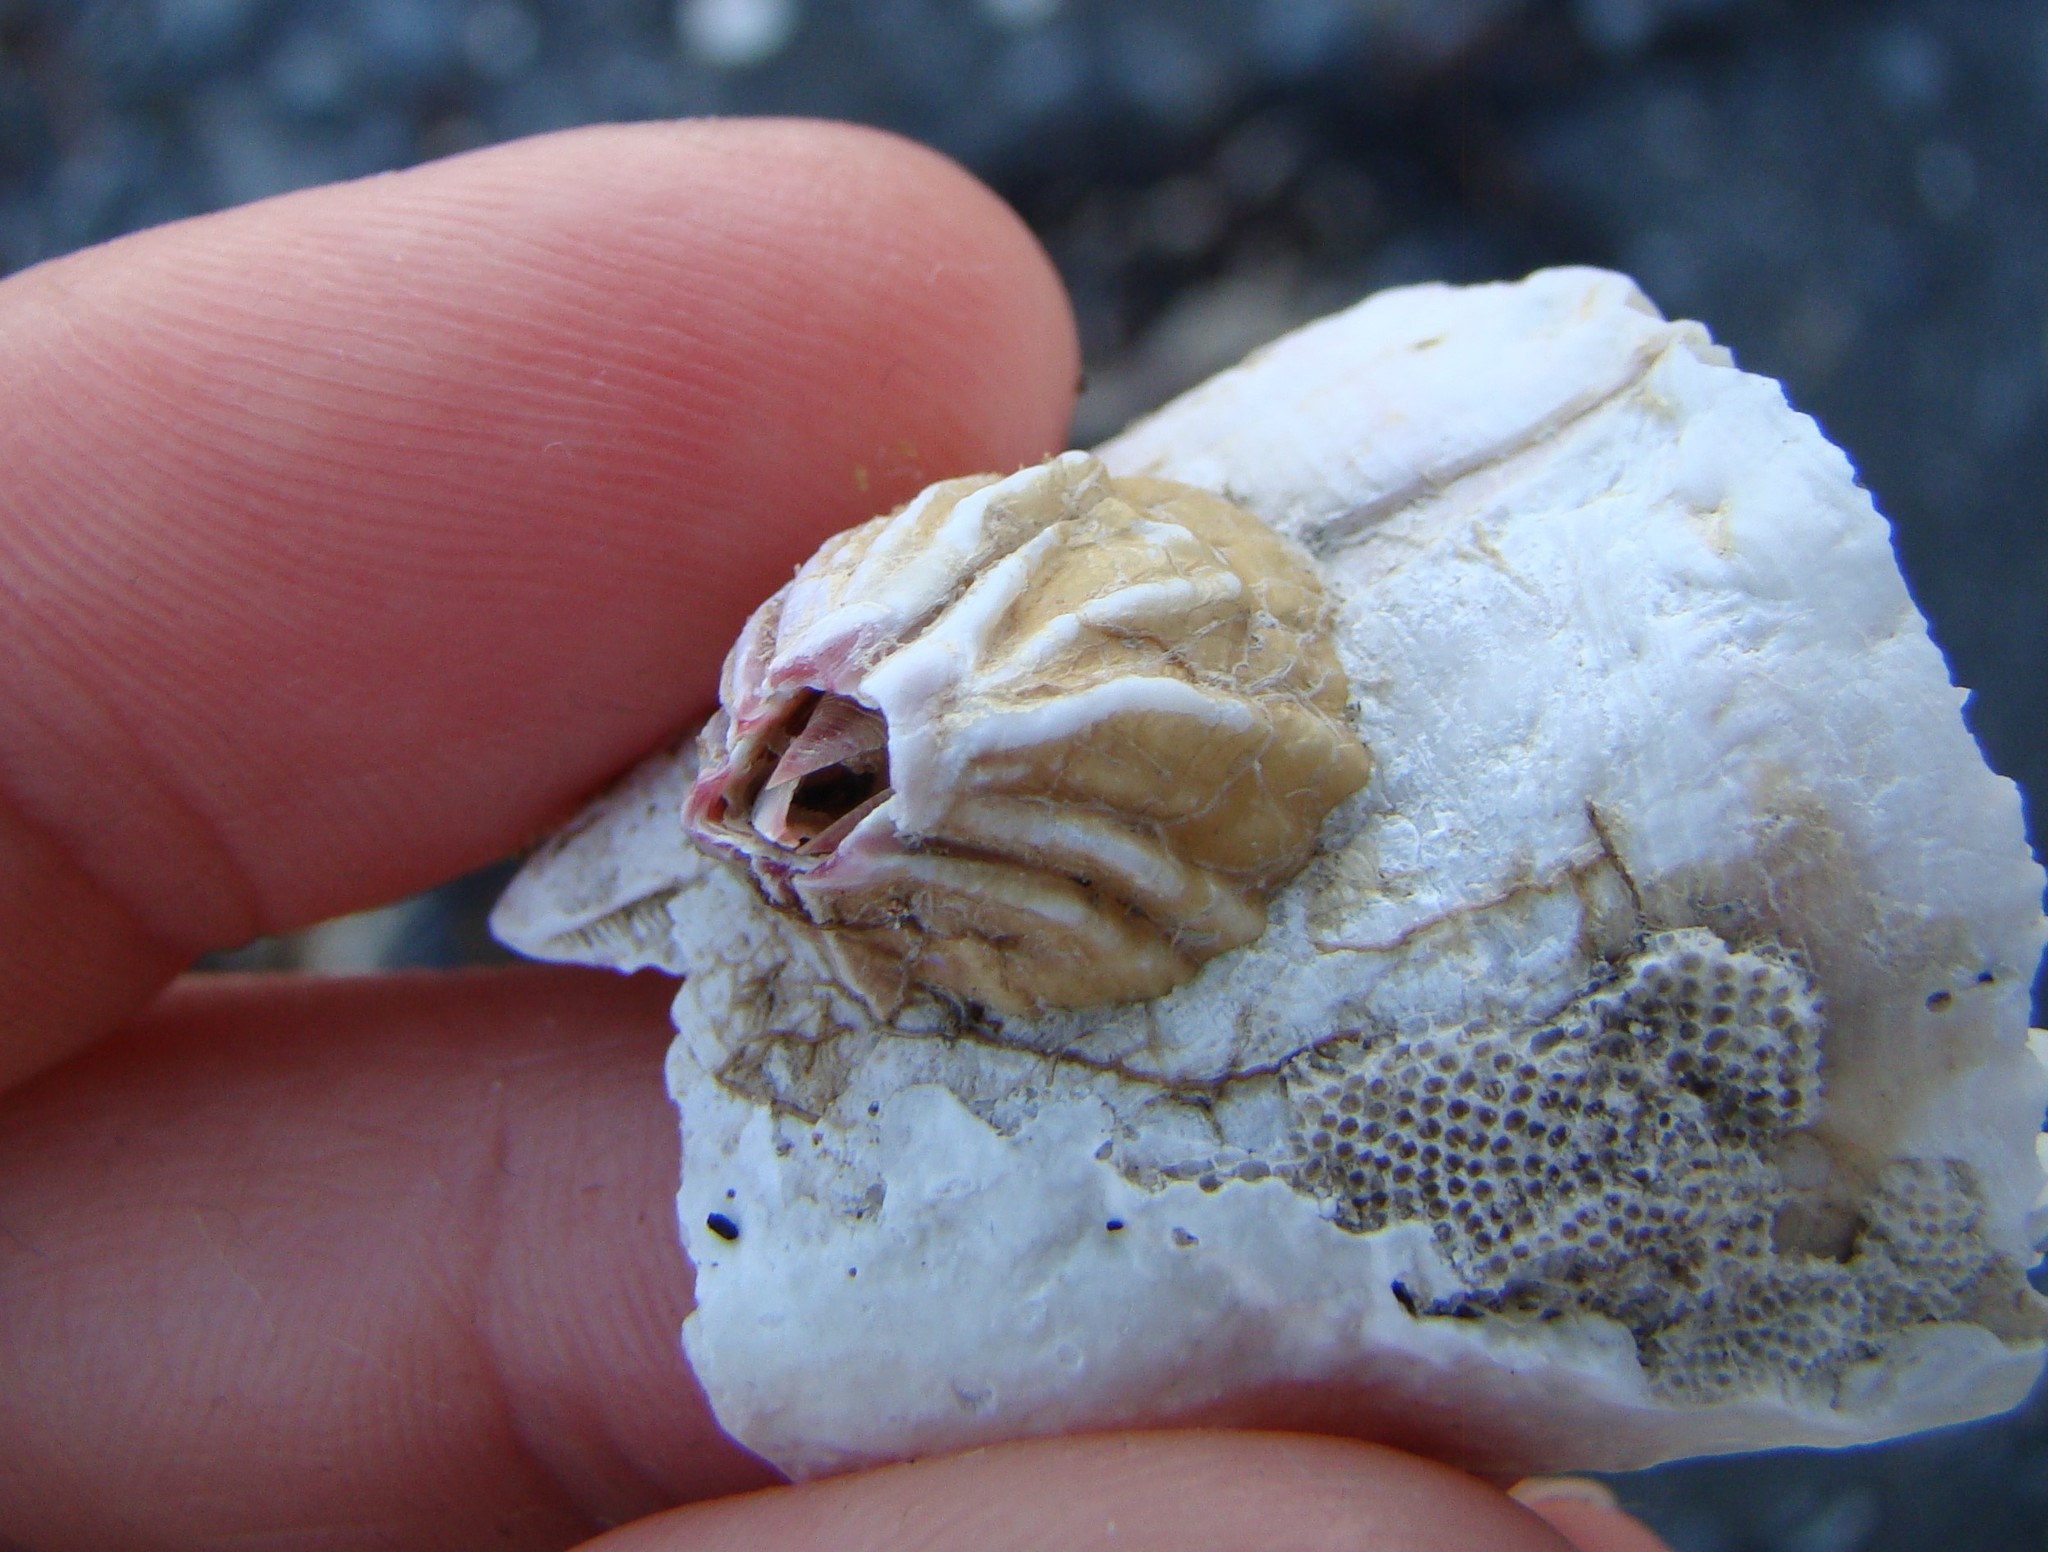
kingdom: Animalia
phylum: Arthropoda
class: Maxillopoda
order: Sessilia
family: Balanidae
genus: Notobalanus
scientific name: Notobalanus vestitus
